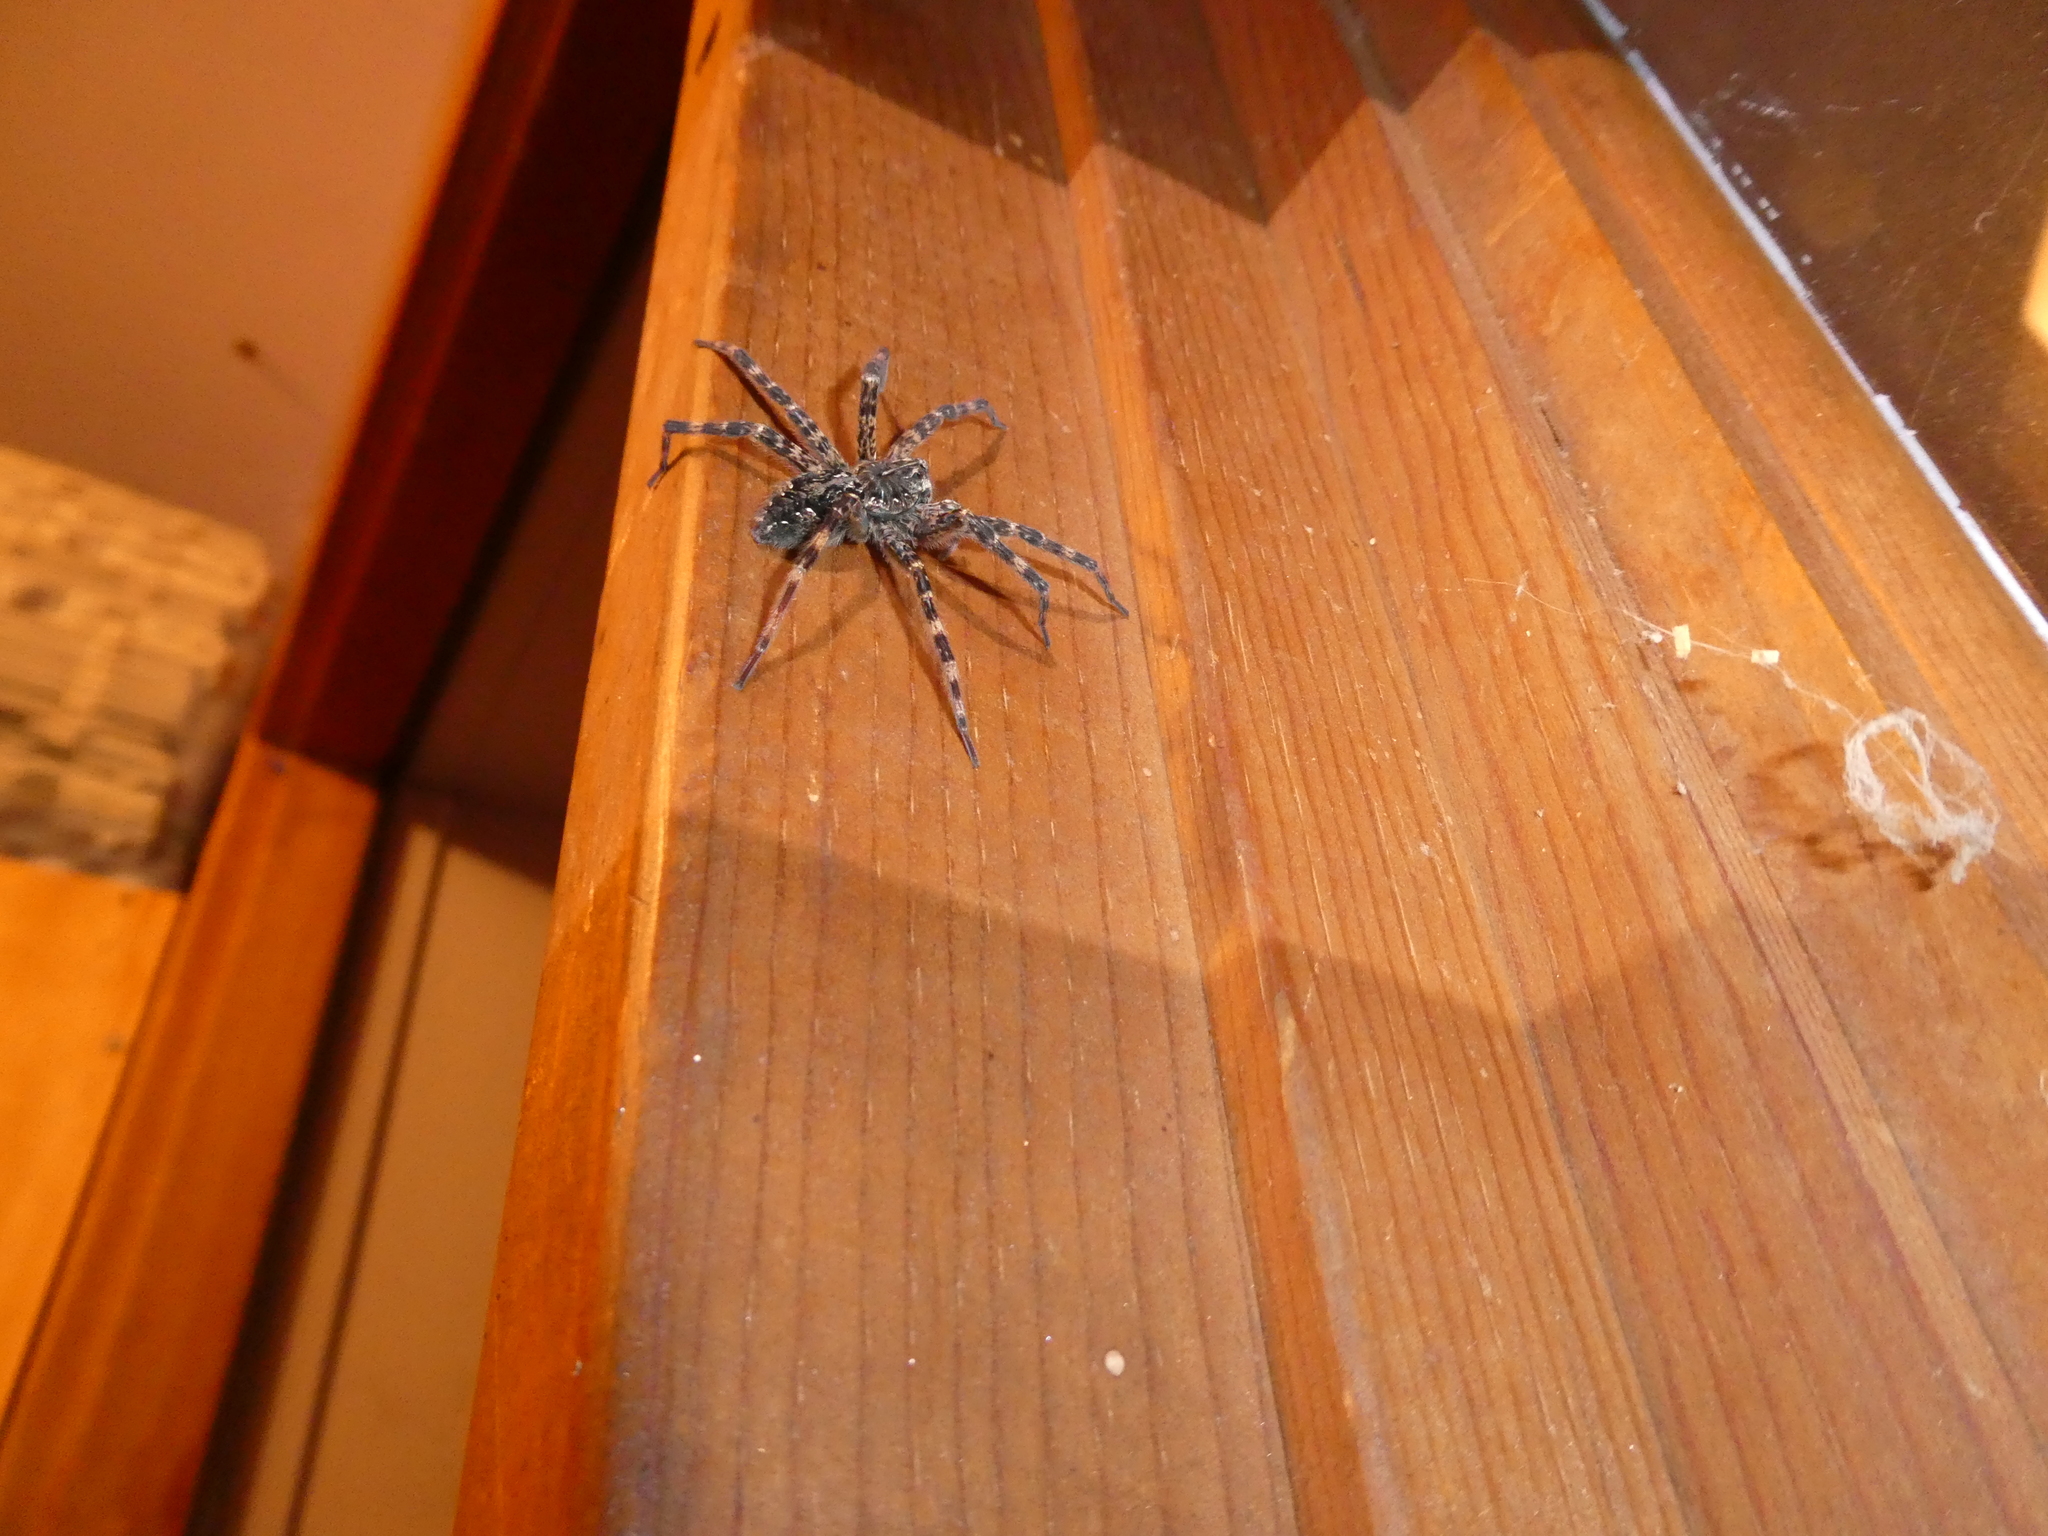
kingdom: Animalia
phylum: Arthropoda
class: Arachnida
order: Araneae
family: Pisauridae
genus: Dolomedes
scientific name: Dolomedes tenebrosus
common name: Dark fishing spider
